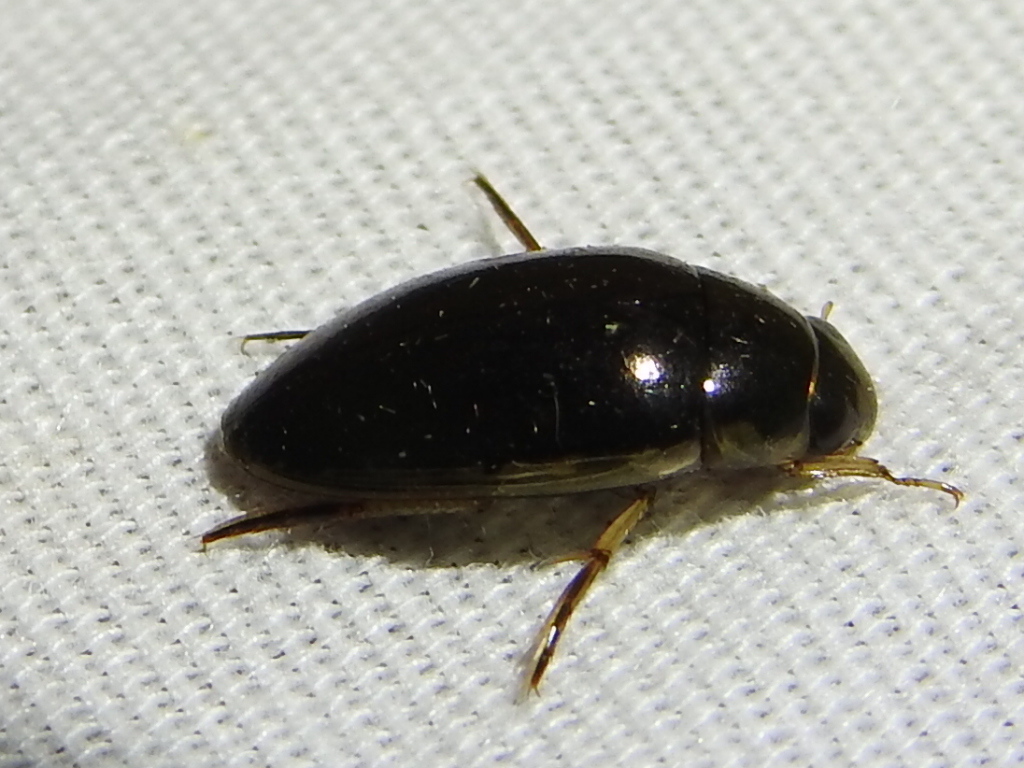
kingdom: Animalia
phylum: Arthropoda
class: Insecta
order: Coleoptera
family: Hydrophilidae
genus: Tropisternus
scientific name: Tropisternus lateralis
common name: Lateral-banded water scavenger beetle
